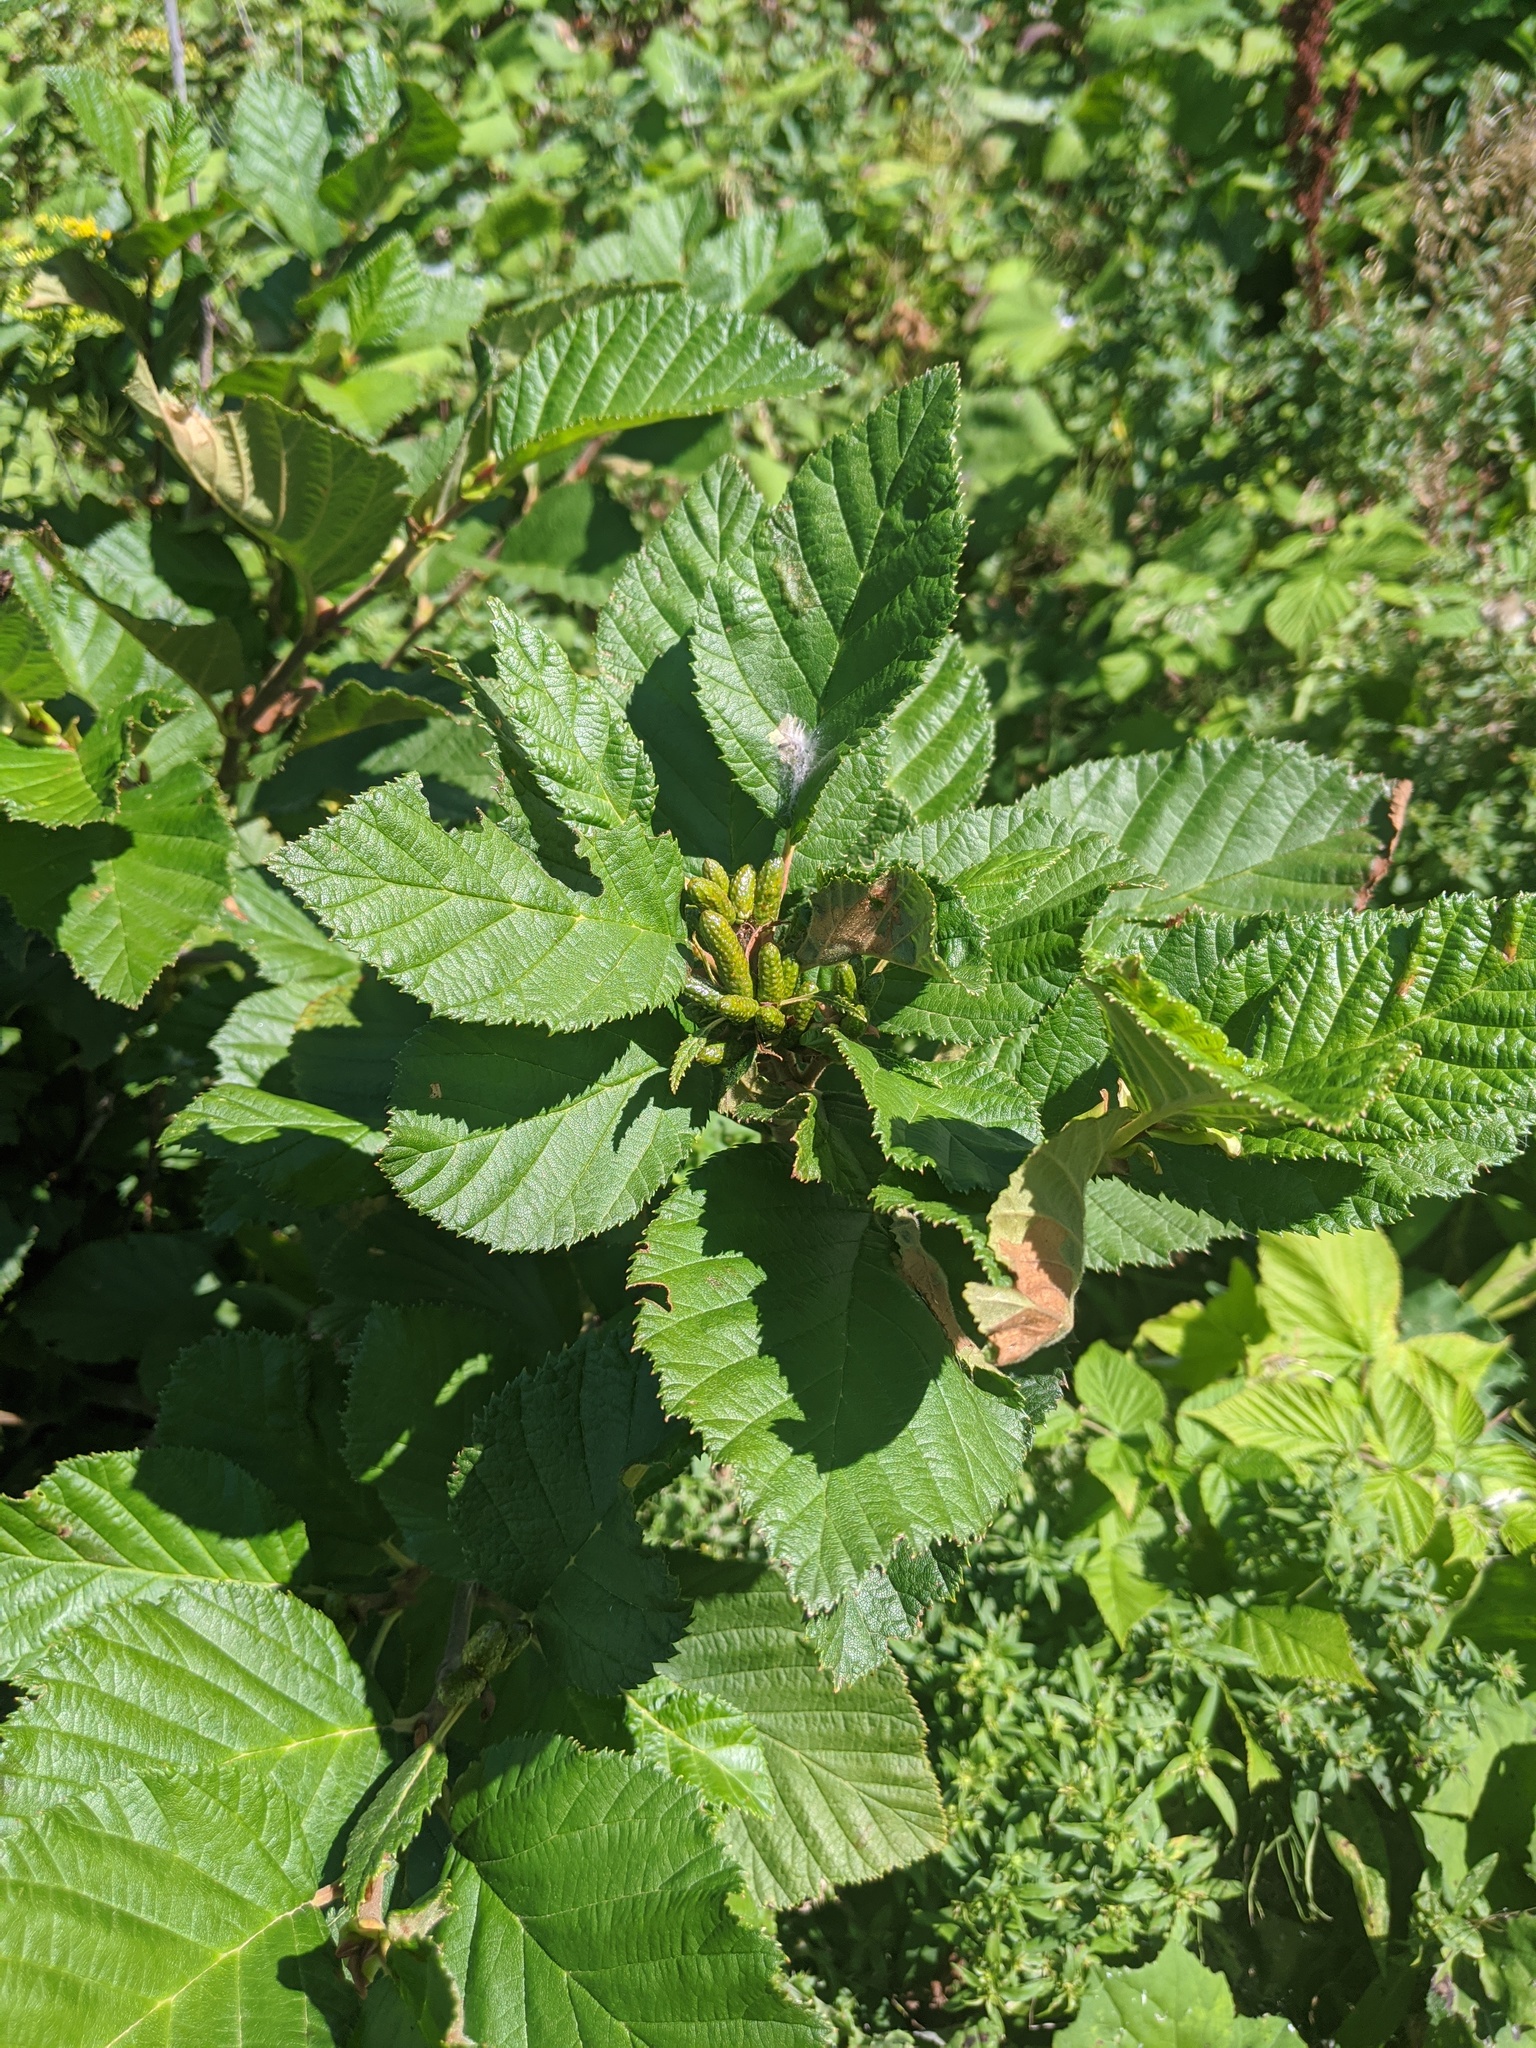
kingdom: Plantae
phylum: Tracheophyta
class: Magnoliopsida
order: Fagales
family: Betulaceae
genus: Alnus
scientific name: Alnus alnobetula
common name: Green alder
